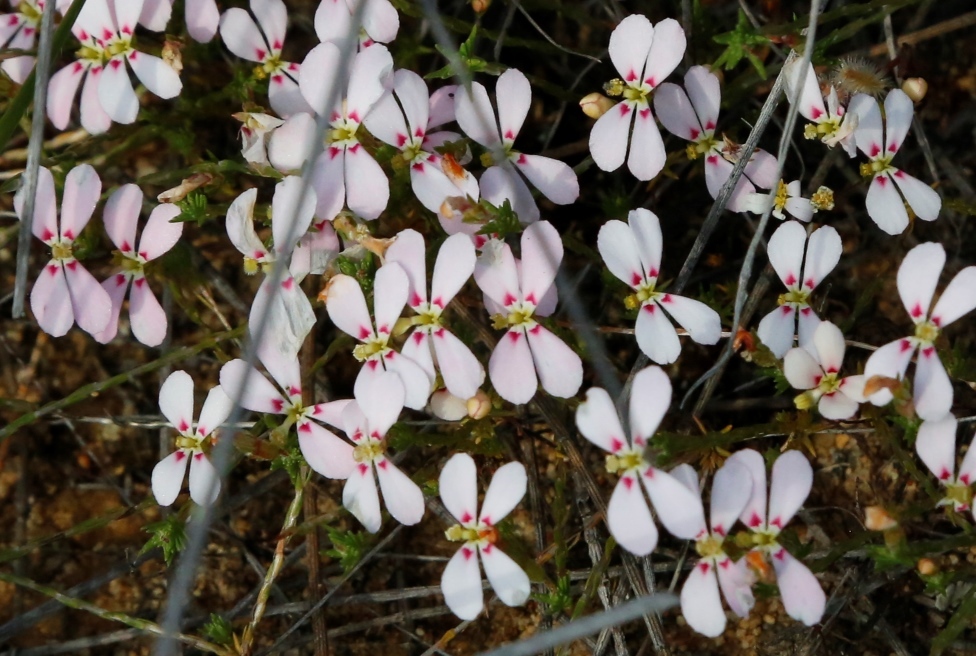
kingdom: Plantae
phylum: Tracheophyta
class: Magnoliopsida
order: Asterales
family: Stylidiaceae
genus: Stylidium
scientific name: Stylidium perula
